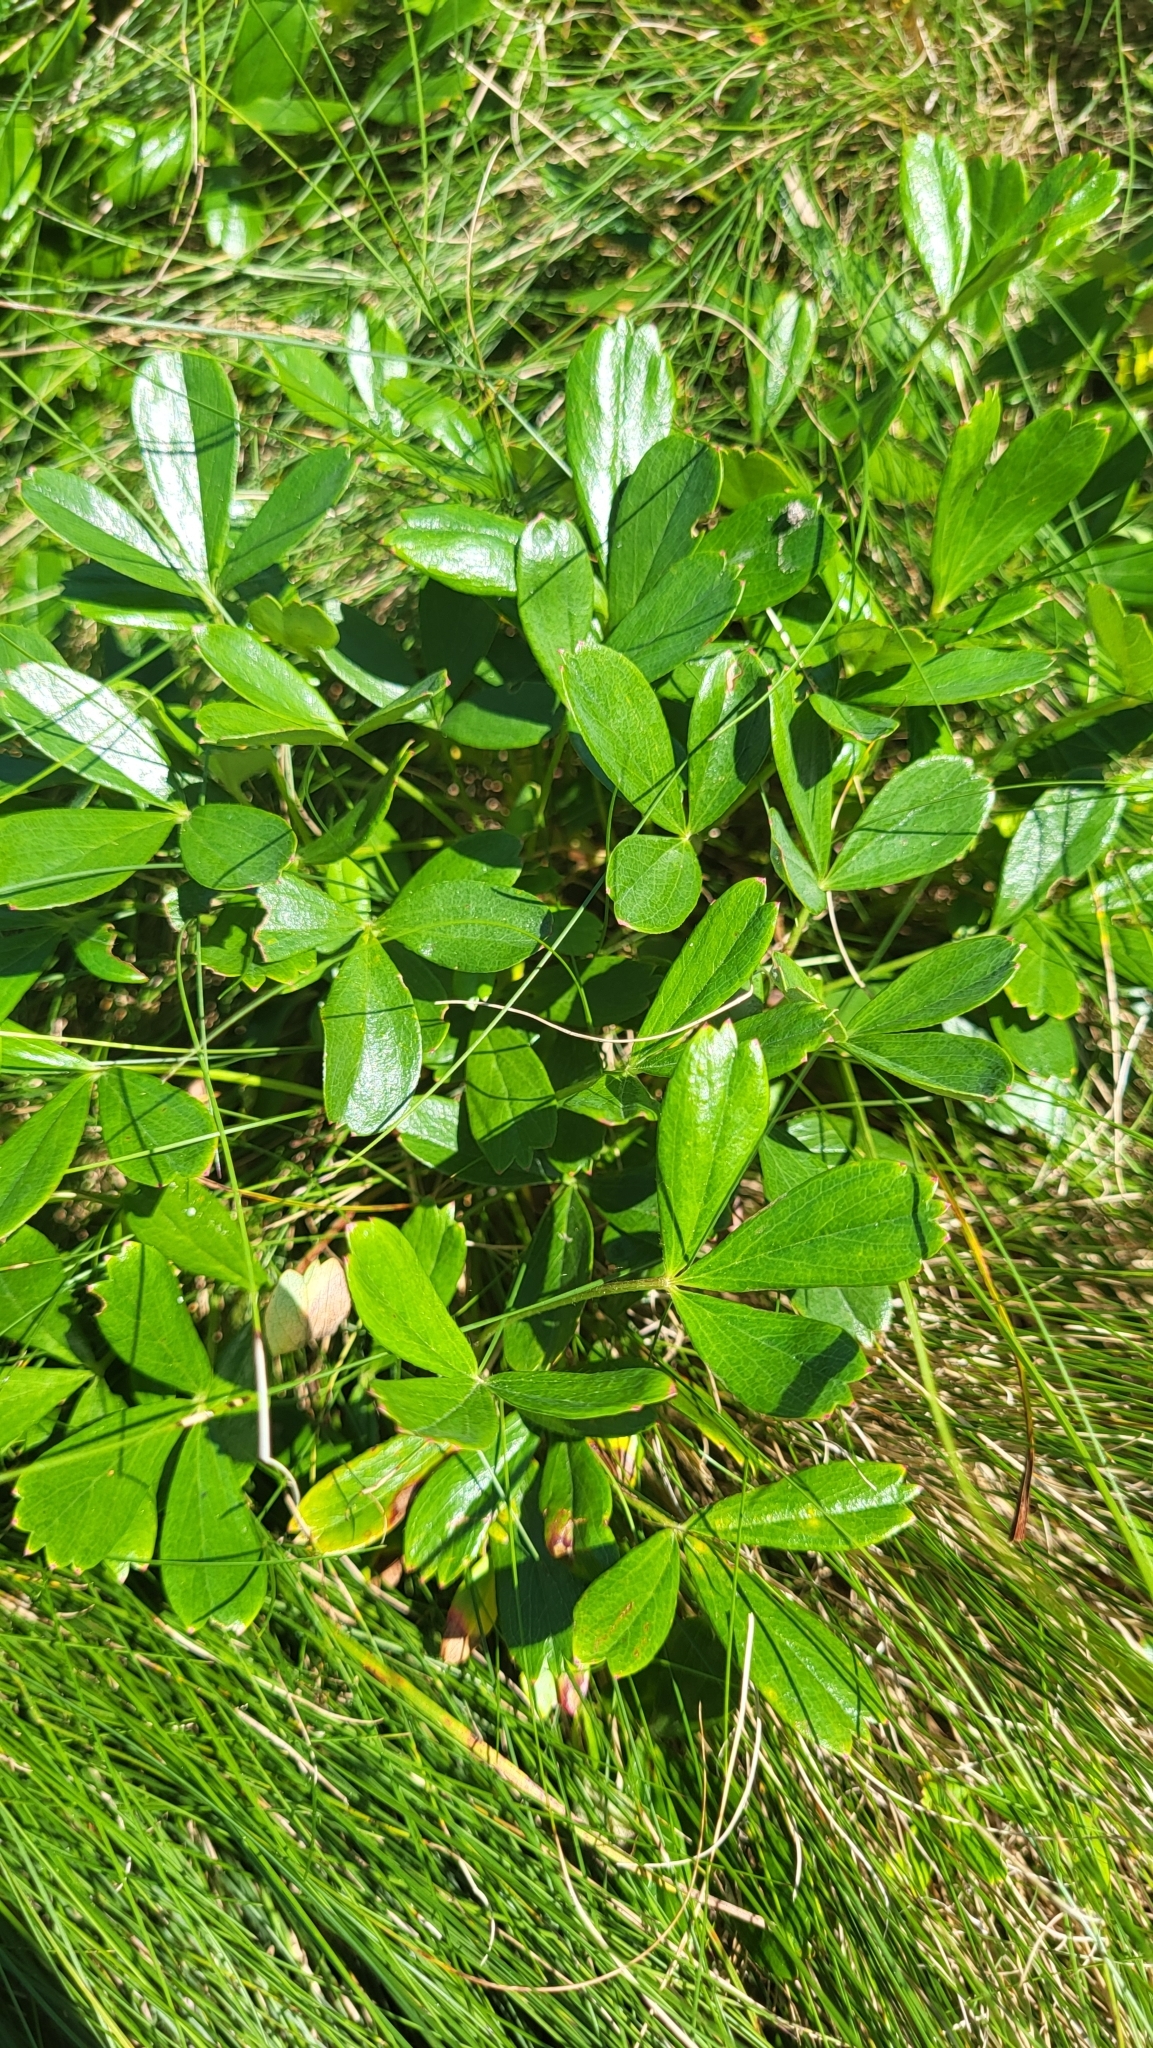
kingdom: Plantae
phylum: Tracheophyta
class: Magnoliopsida
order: Rosales
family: Rosaceae
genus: Sibbaldia
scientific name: Sibbaldia tridentata
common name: Three-toothed cinquefoil
